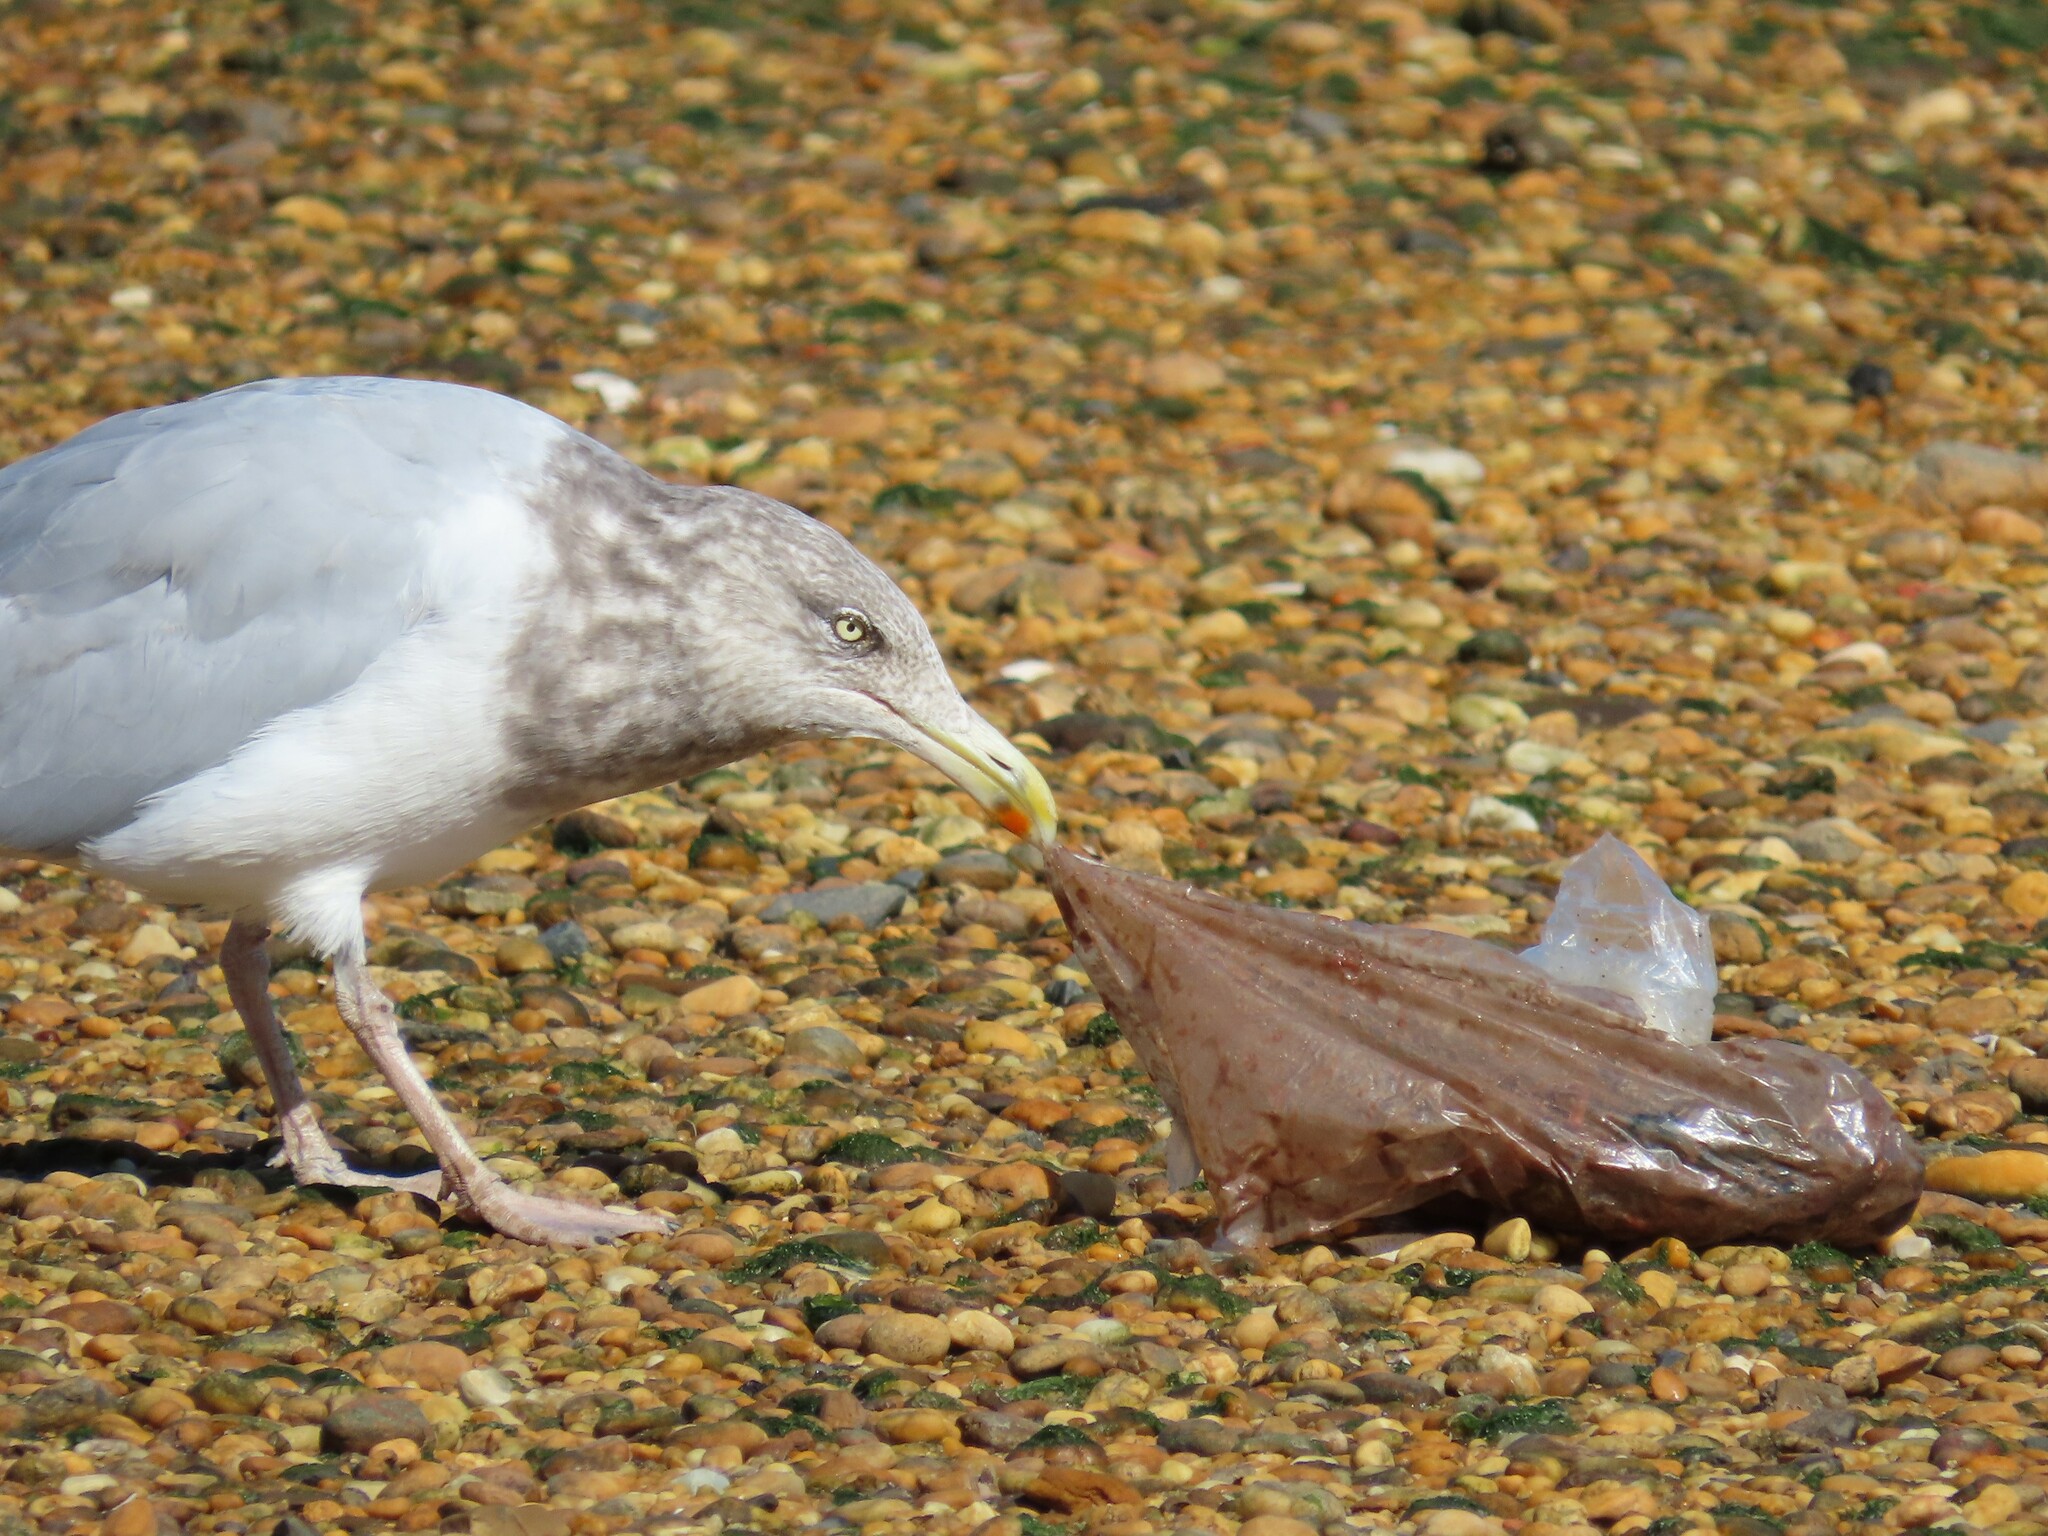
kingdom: Animalia
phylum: Chordata
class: Aves
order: Charadriiformes
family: Laridae
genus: Larus
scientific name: Larus argentatus
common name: Herring gull
